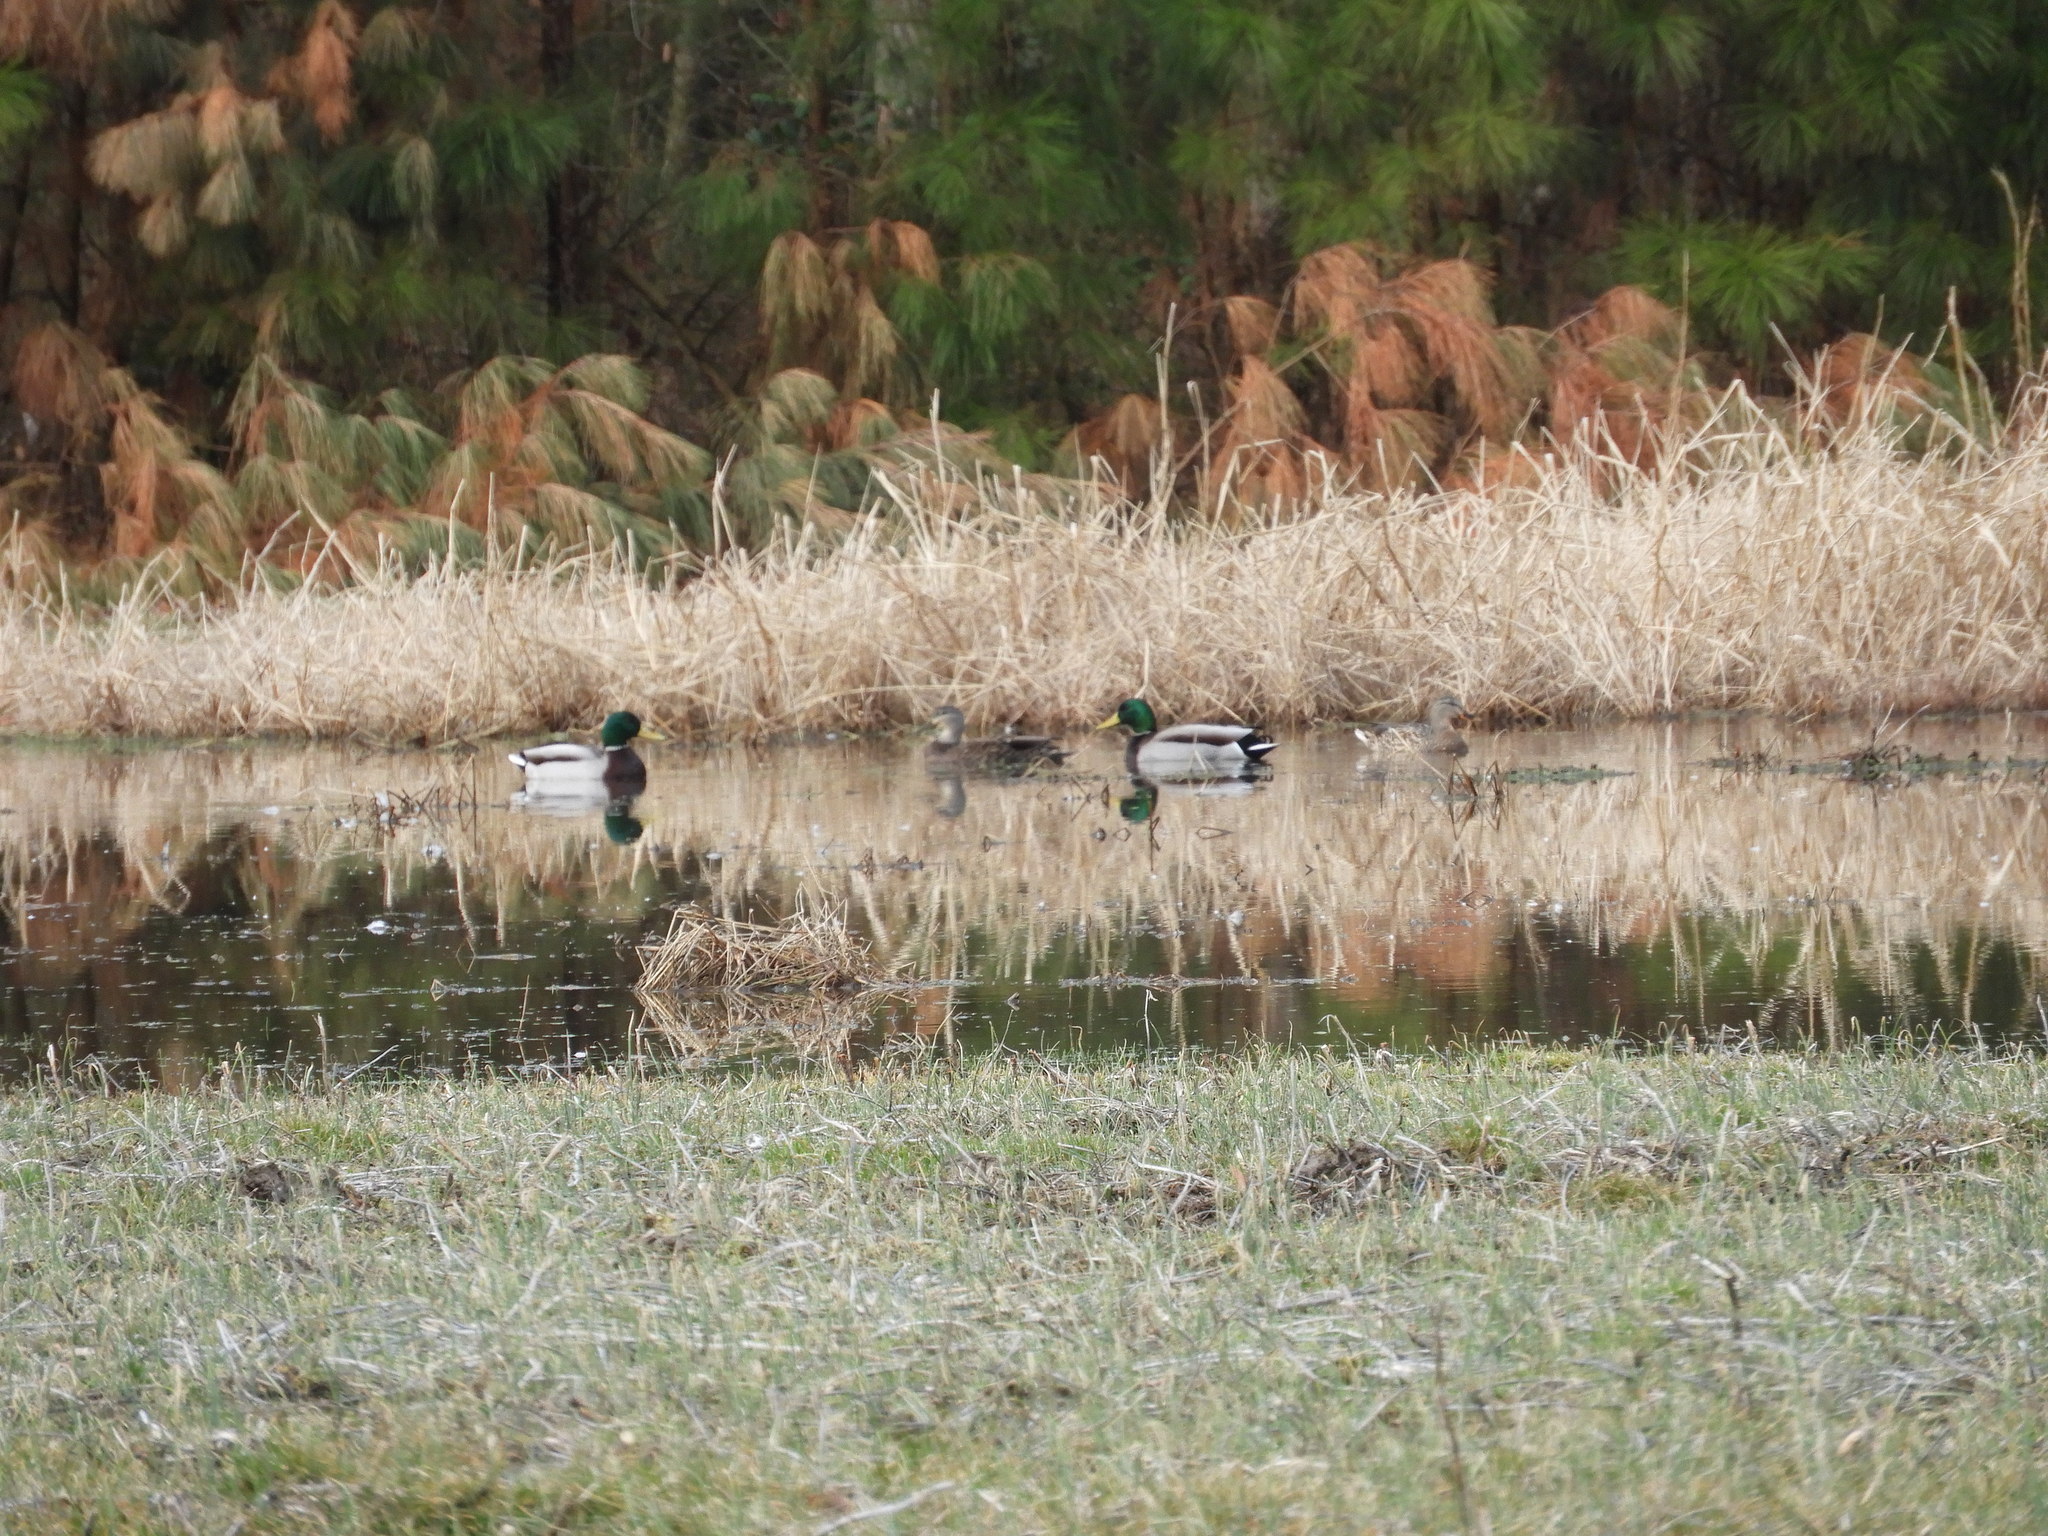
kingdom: Animalia
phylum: Chordata
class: Aves
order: Anseriformes
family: Anatidae
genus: Anas
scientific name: Anas platyrhynchos
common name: Mallard
